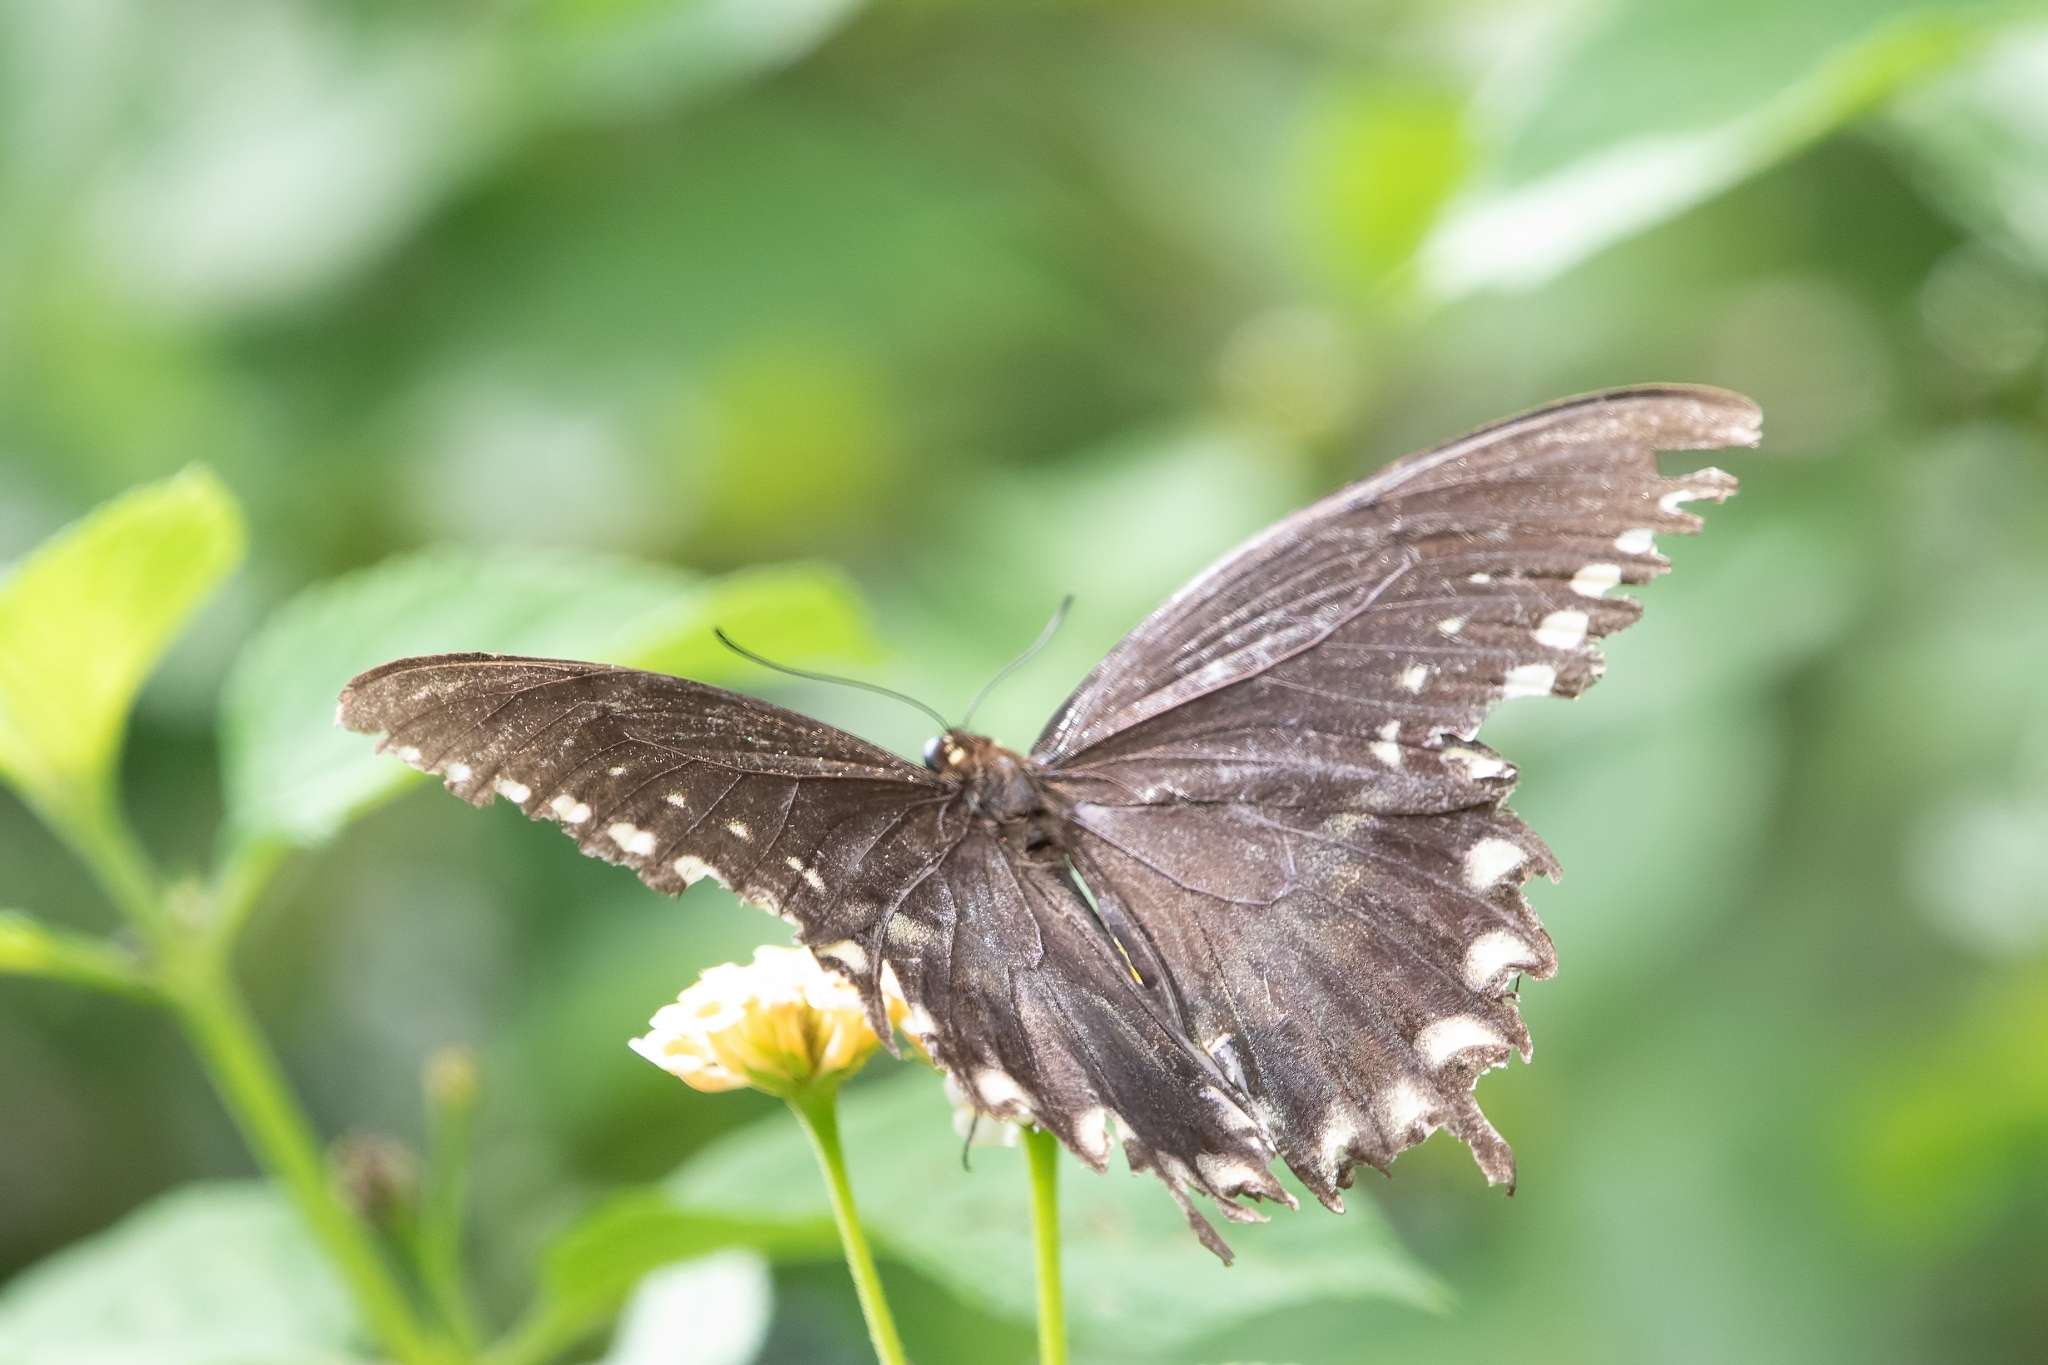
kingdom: Animalia
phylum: Arthropoda
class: Insecta
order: Lepidoptera
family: Papilionidae
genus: Papilio
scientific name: Papilio troilus
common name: Spicebush swallowtail
